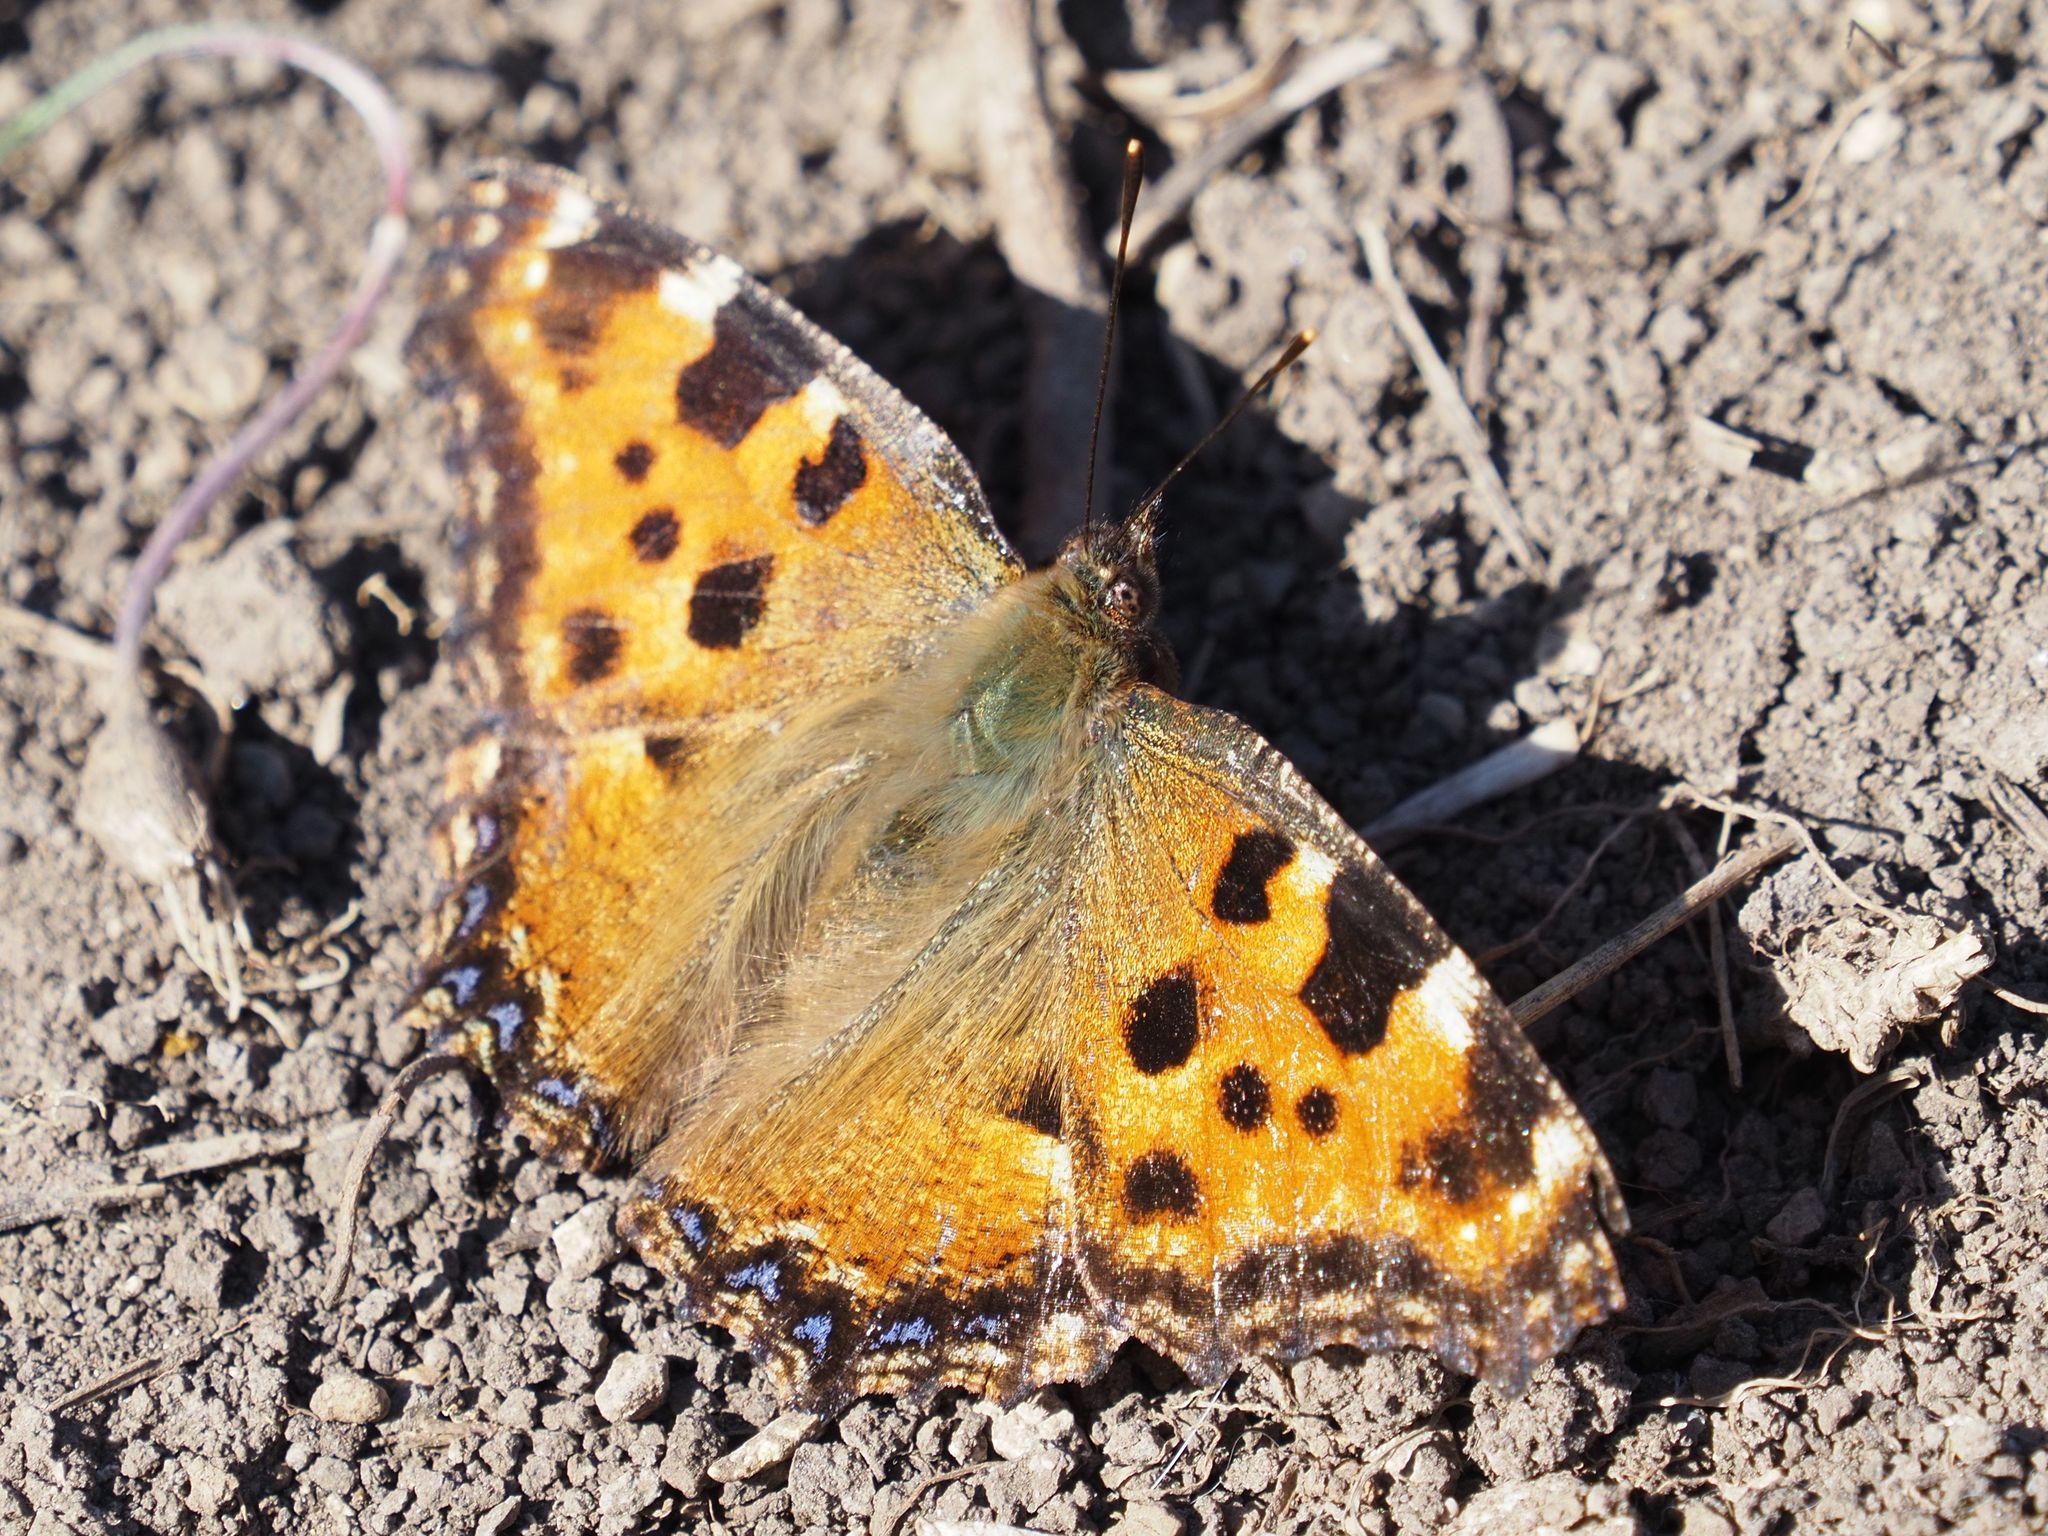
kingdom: Animalia
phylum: Arthropoda
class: Insecta
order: Lepidoptera
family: Nymphalidae
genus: Nymphalis
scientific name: Nymphalis polychloros
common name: Large tortoiseshell
